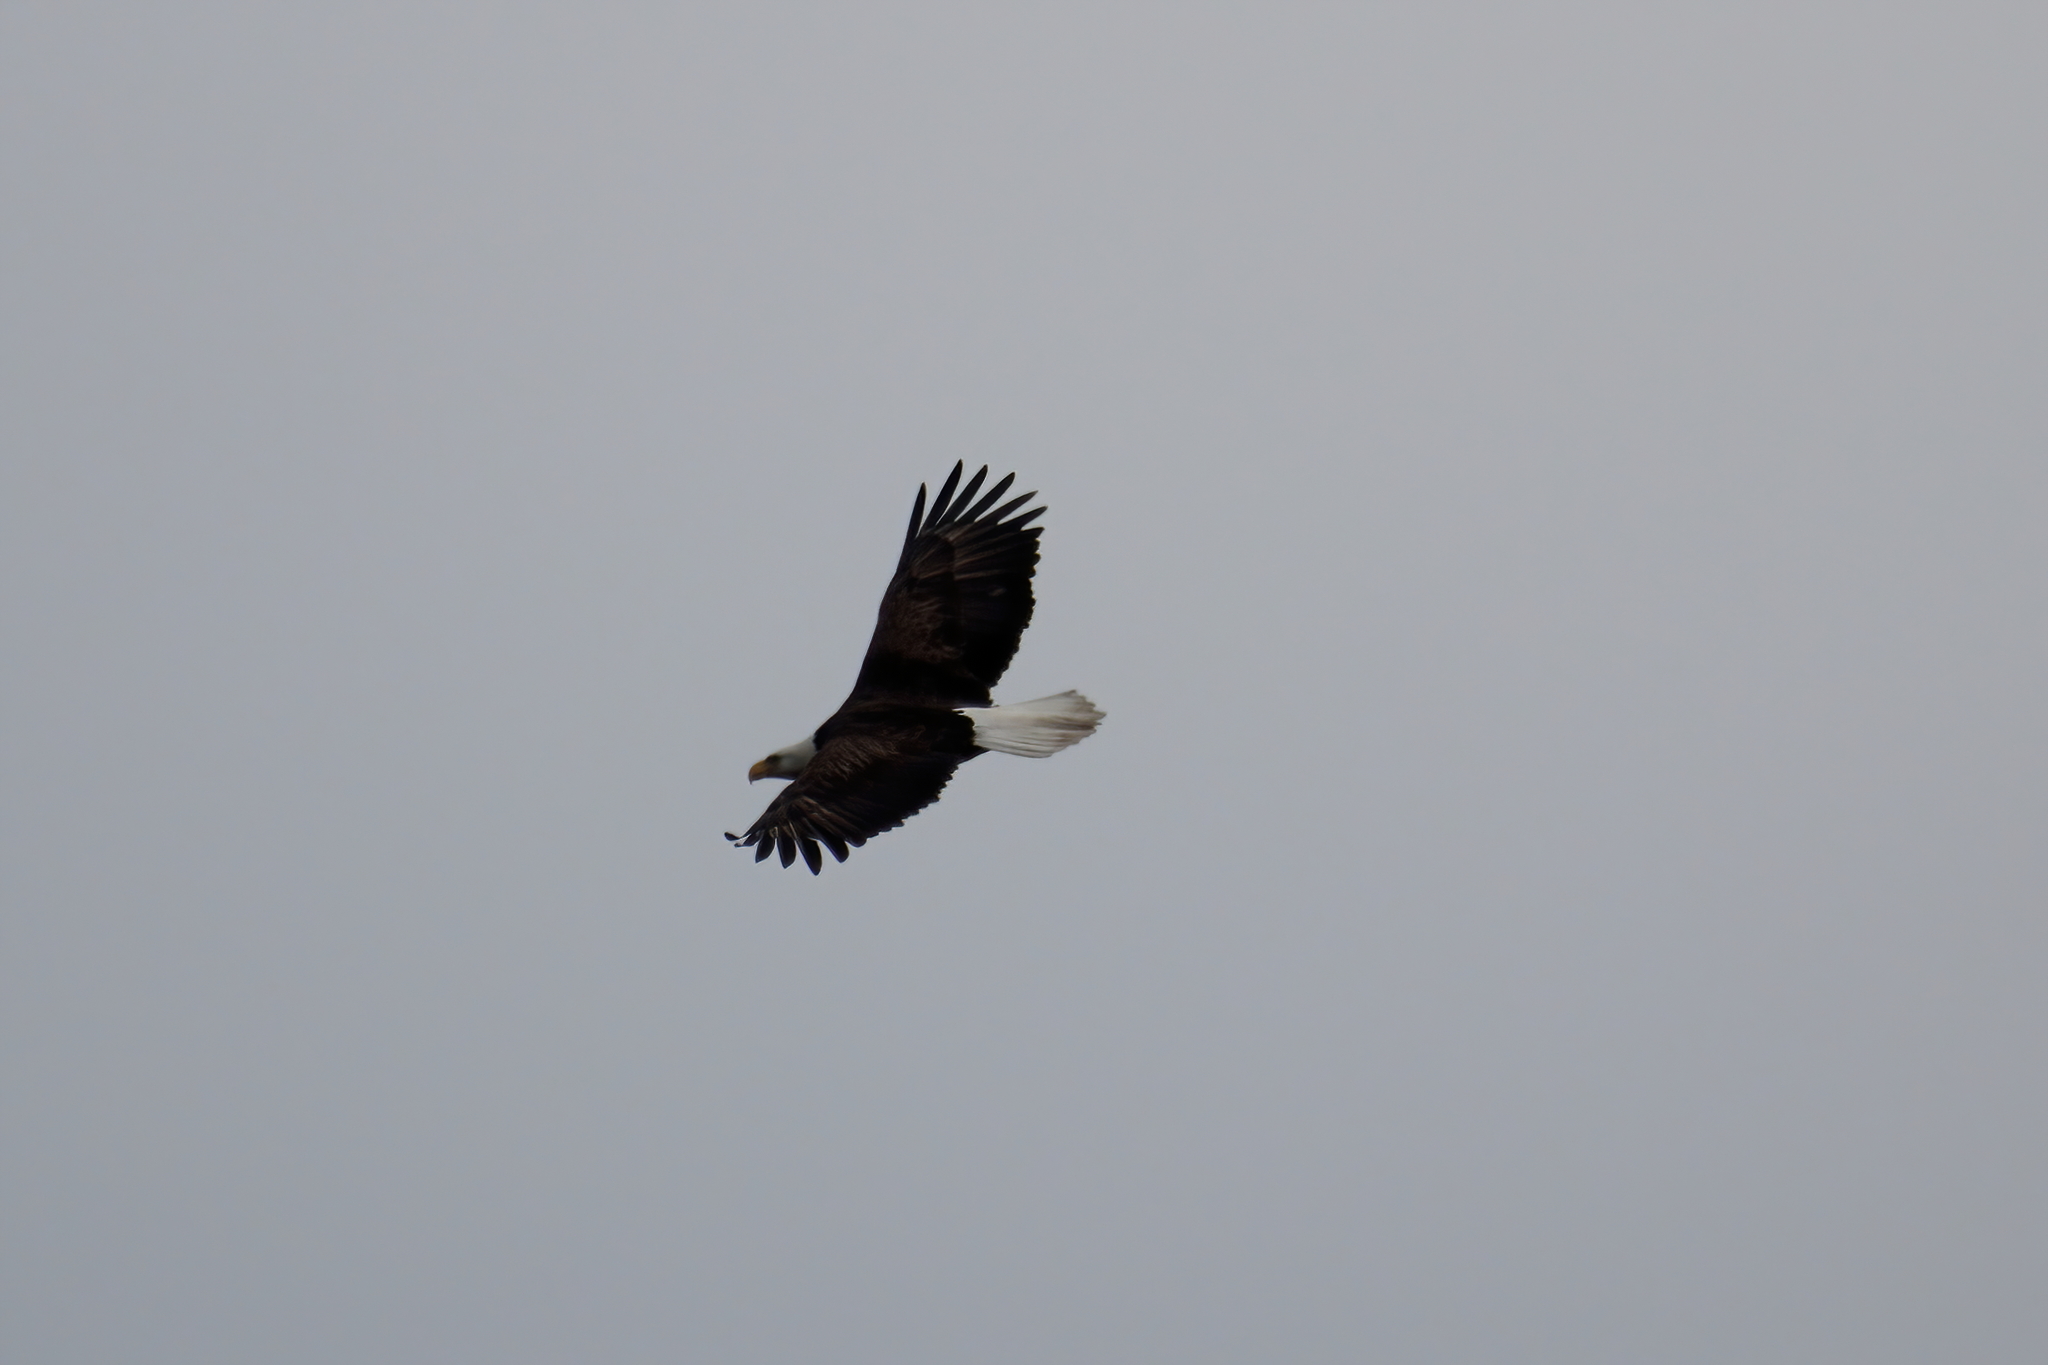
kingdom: Animalia
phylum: Chordata
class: Aves
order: Accipitriformes
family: Accipitridae
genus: Haliaeetus
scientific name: Haliaeetus leucocephalus
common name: Bald eagle
